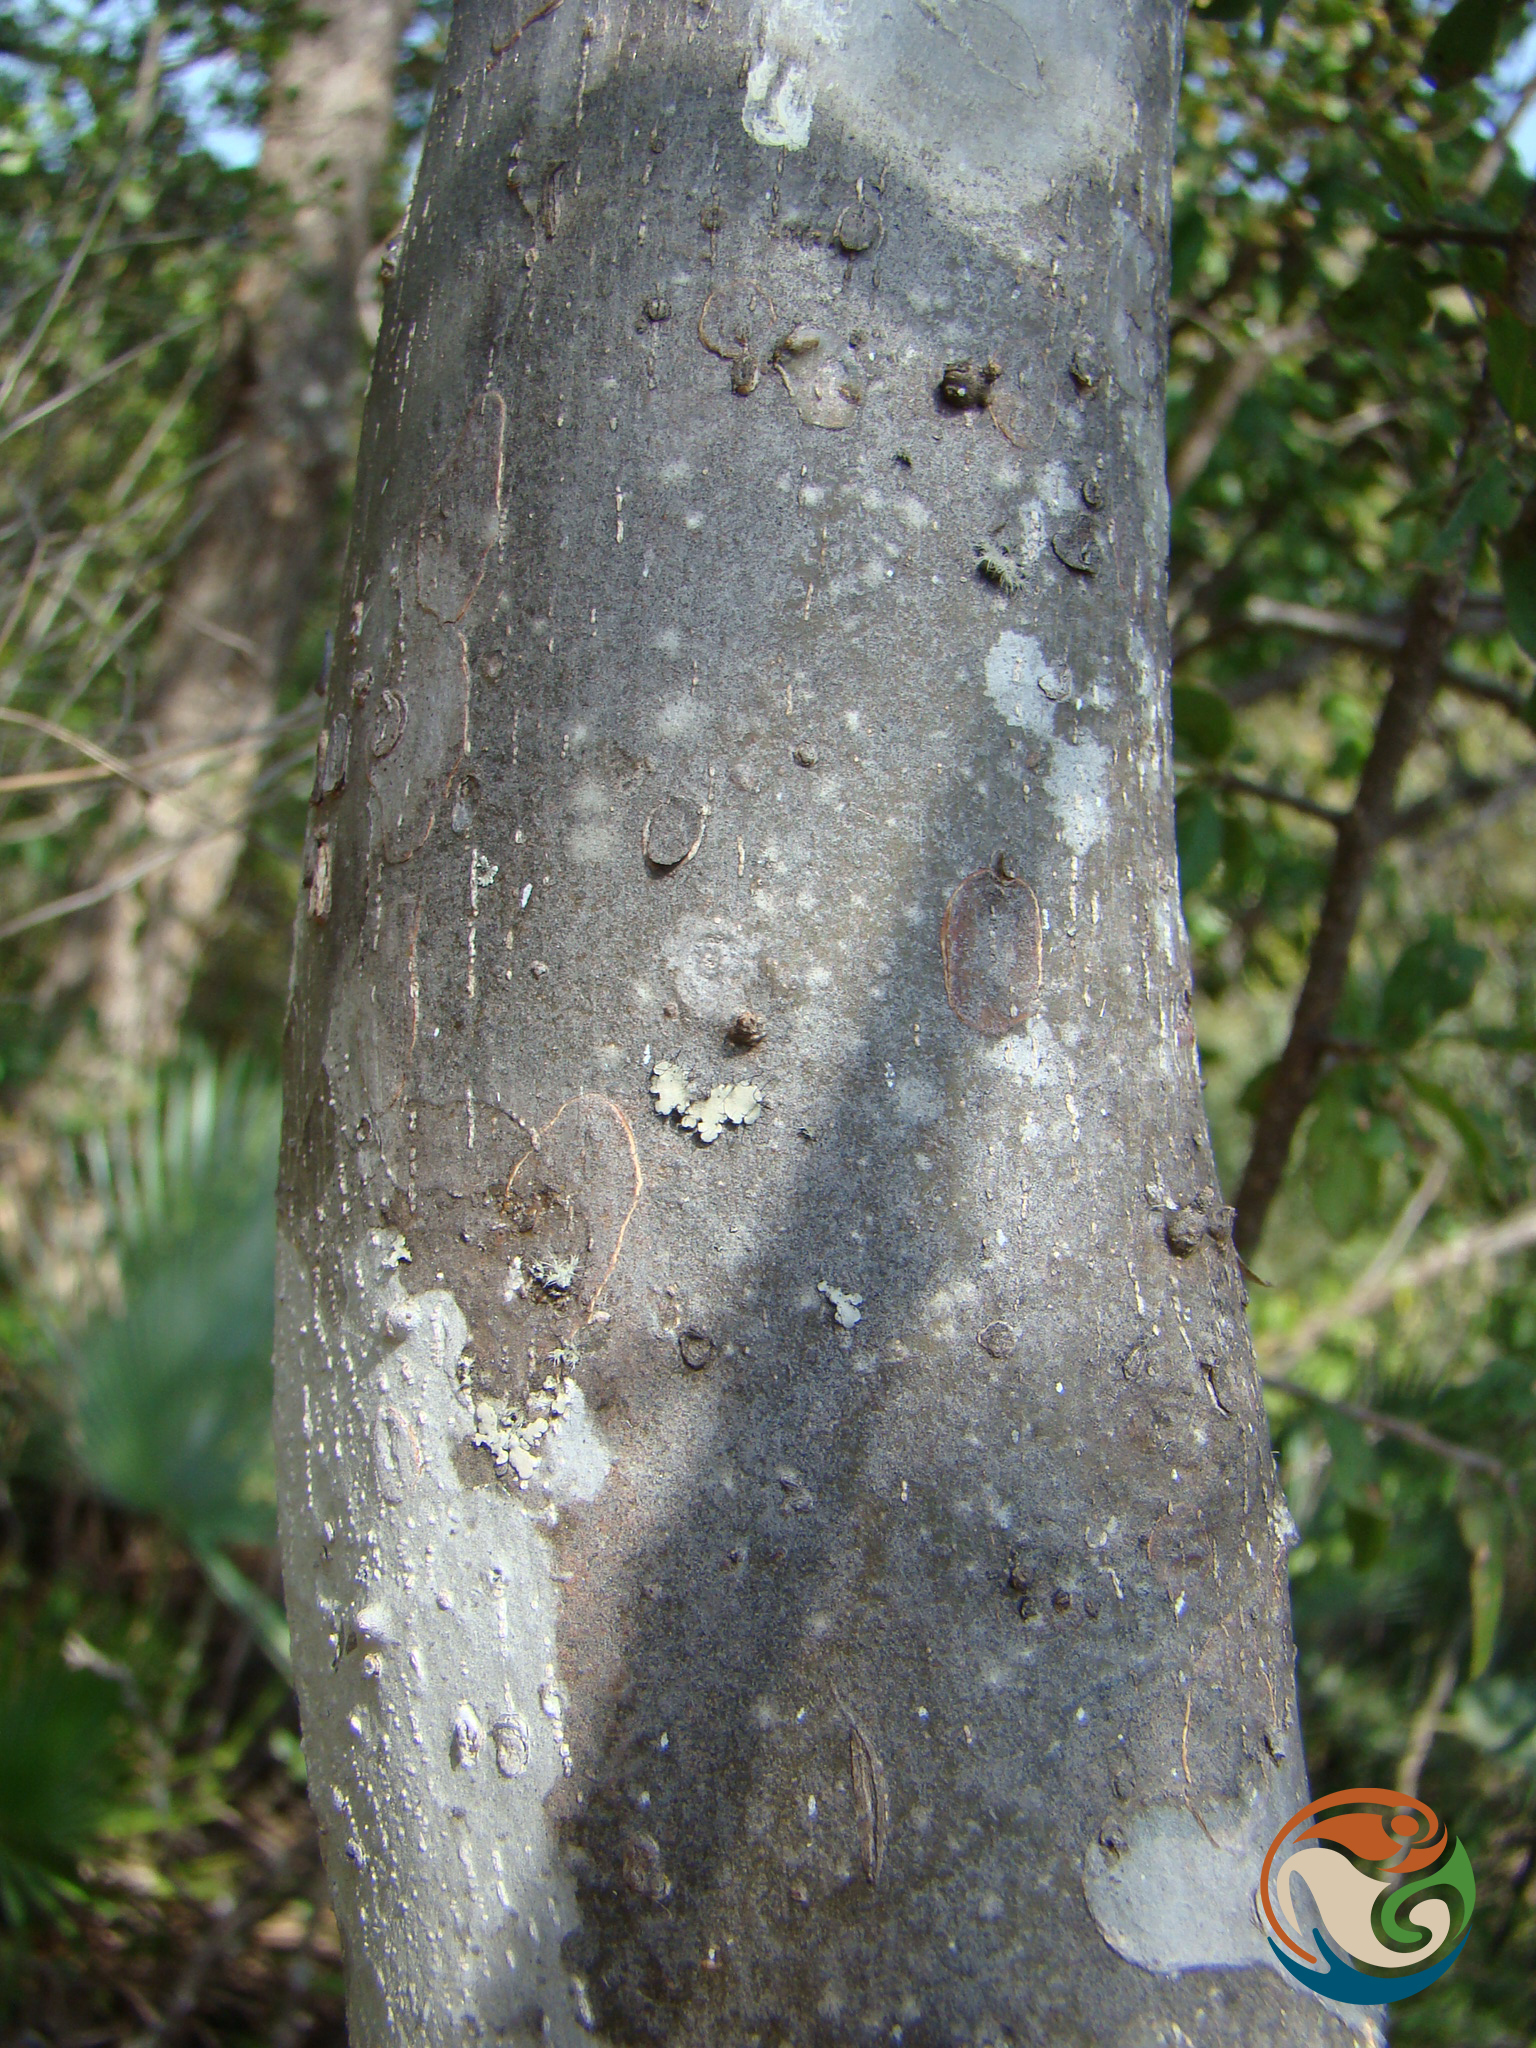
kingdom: Plantae
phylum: Tracheophyta
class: Magnoliopsida
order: Celastrales
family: Celastraceae
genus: Wimmeria
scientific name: Wimmeria microphylla
